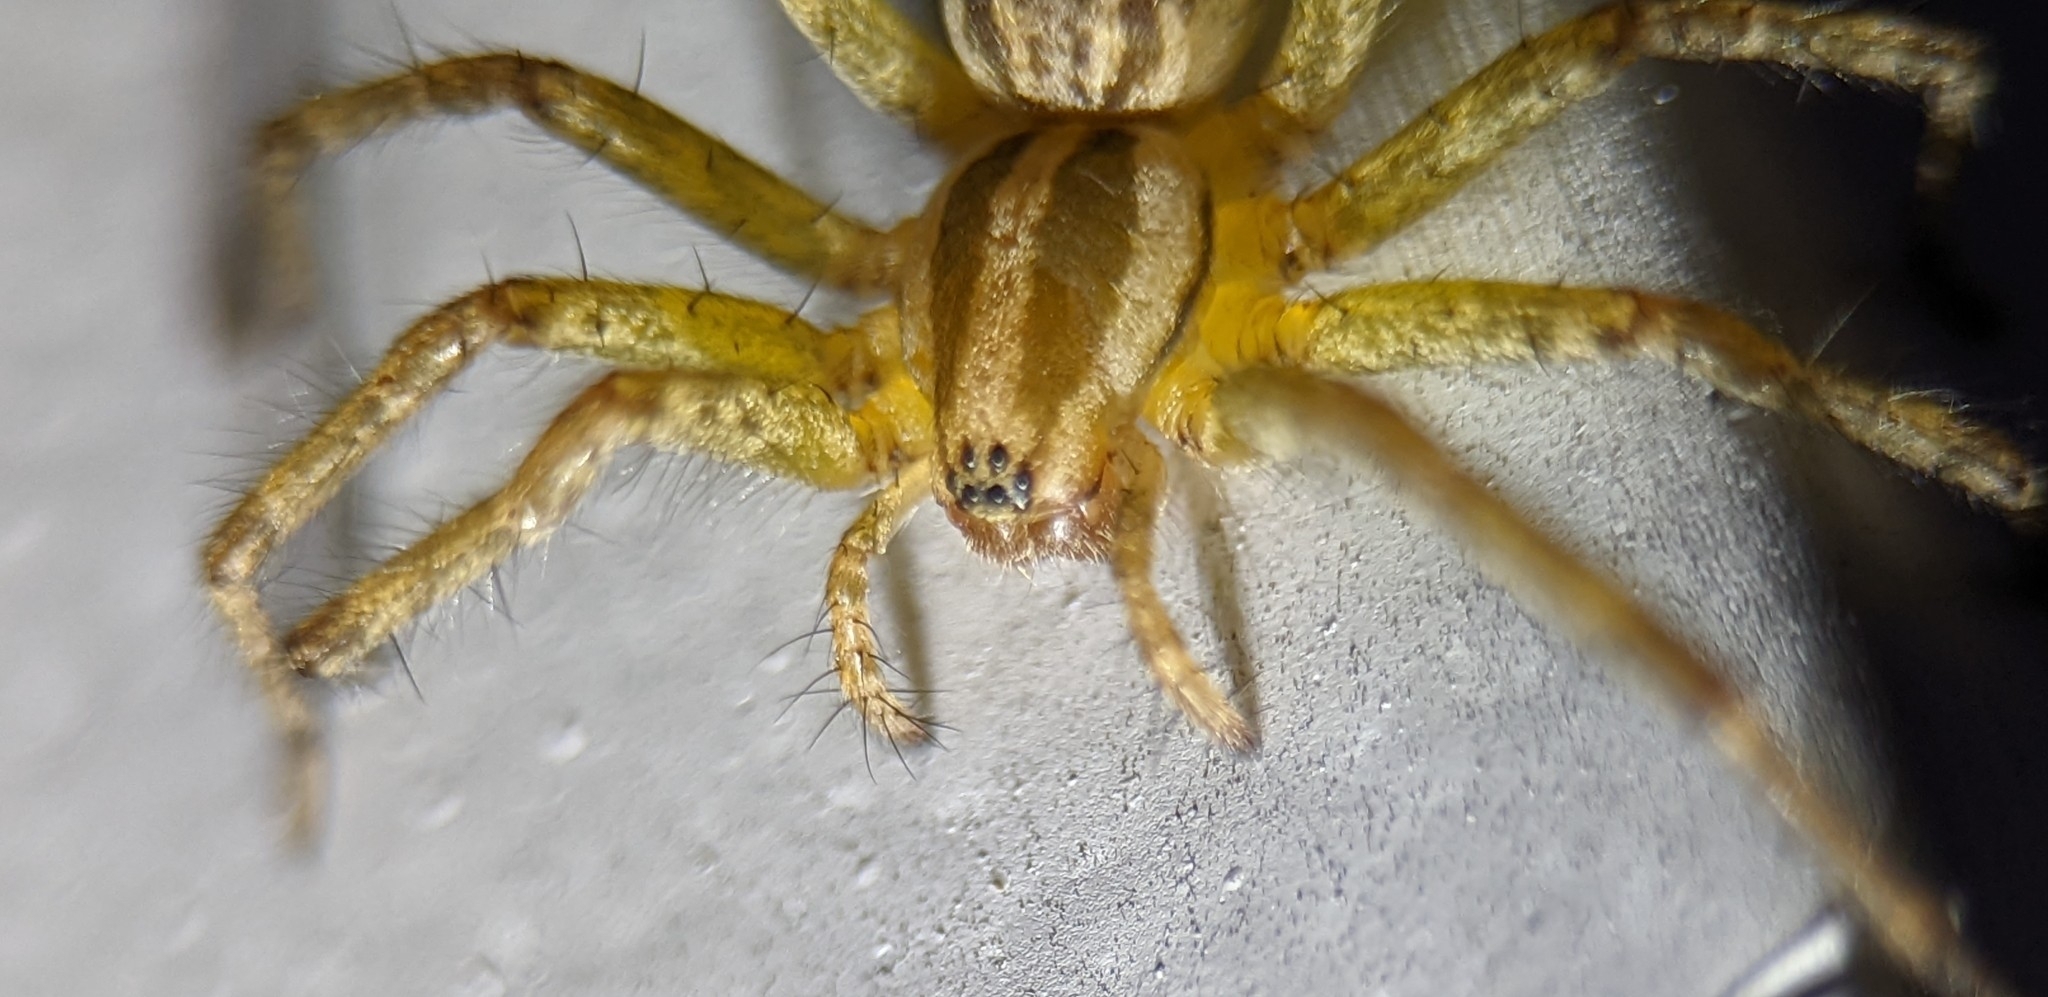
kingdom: Animalia
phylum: Arthropoda
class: Arachnida
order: Araneae
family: Agelenidae
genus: Agelenopsis
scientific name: Agelenopsis
